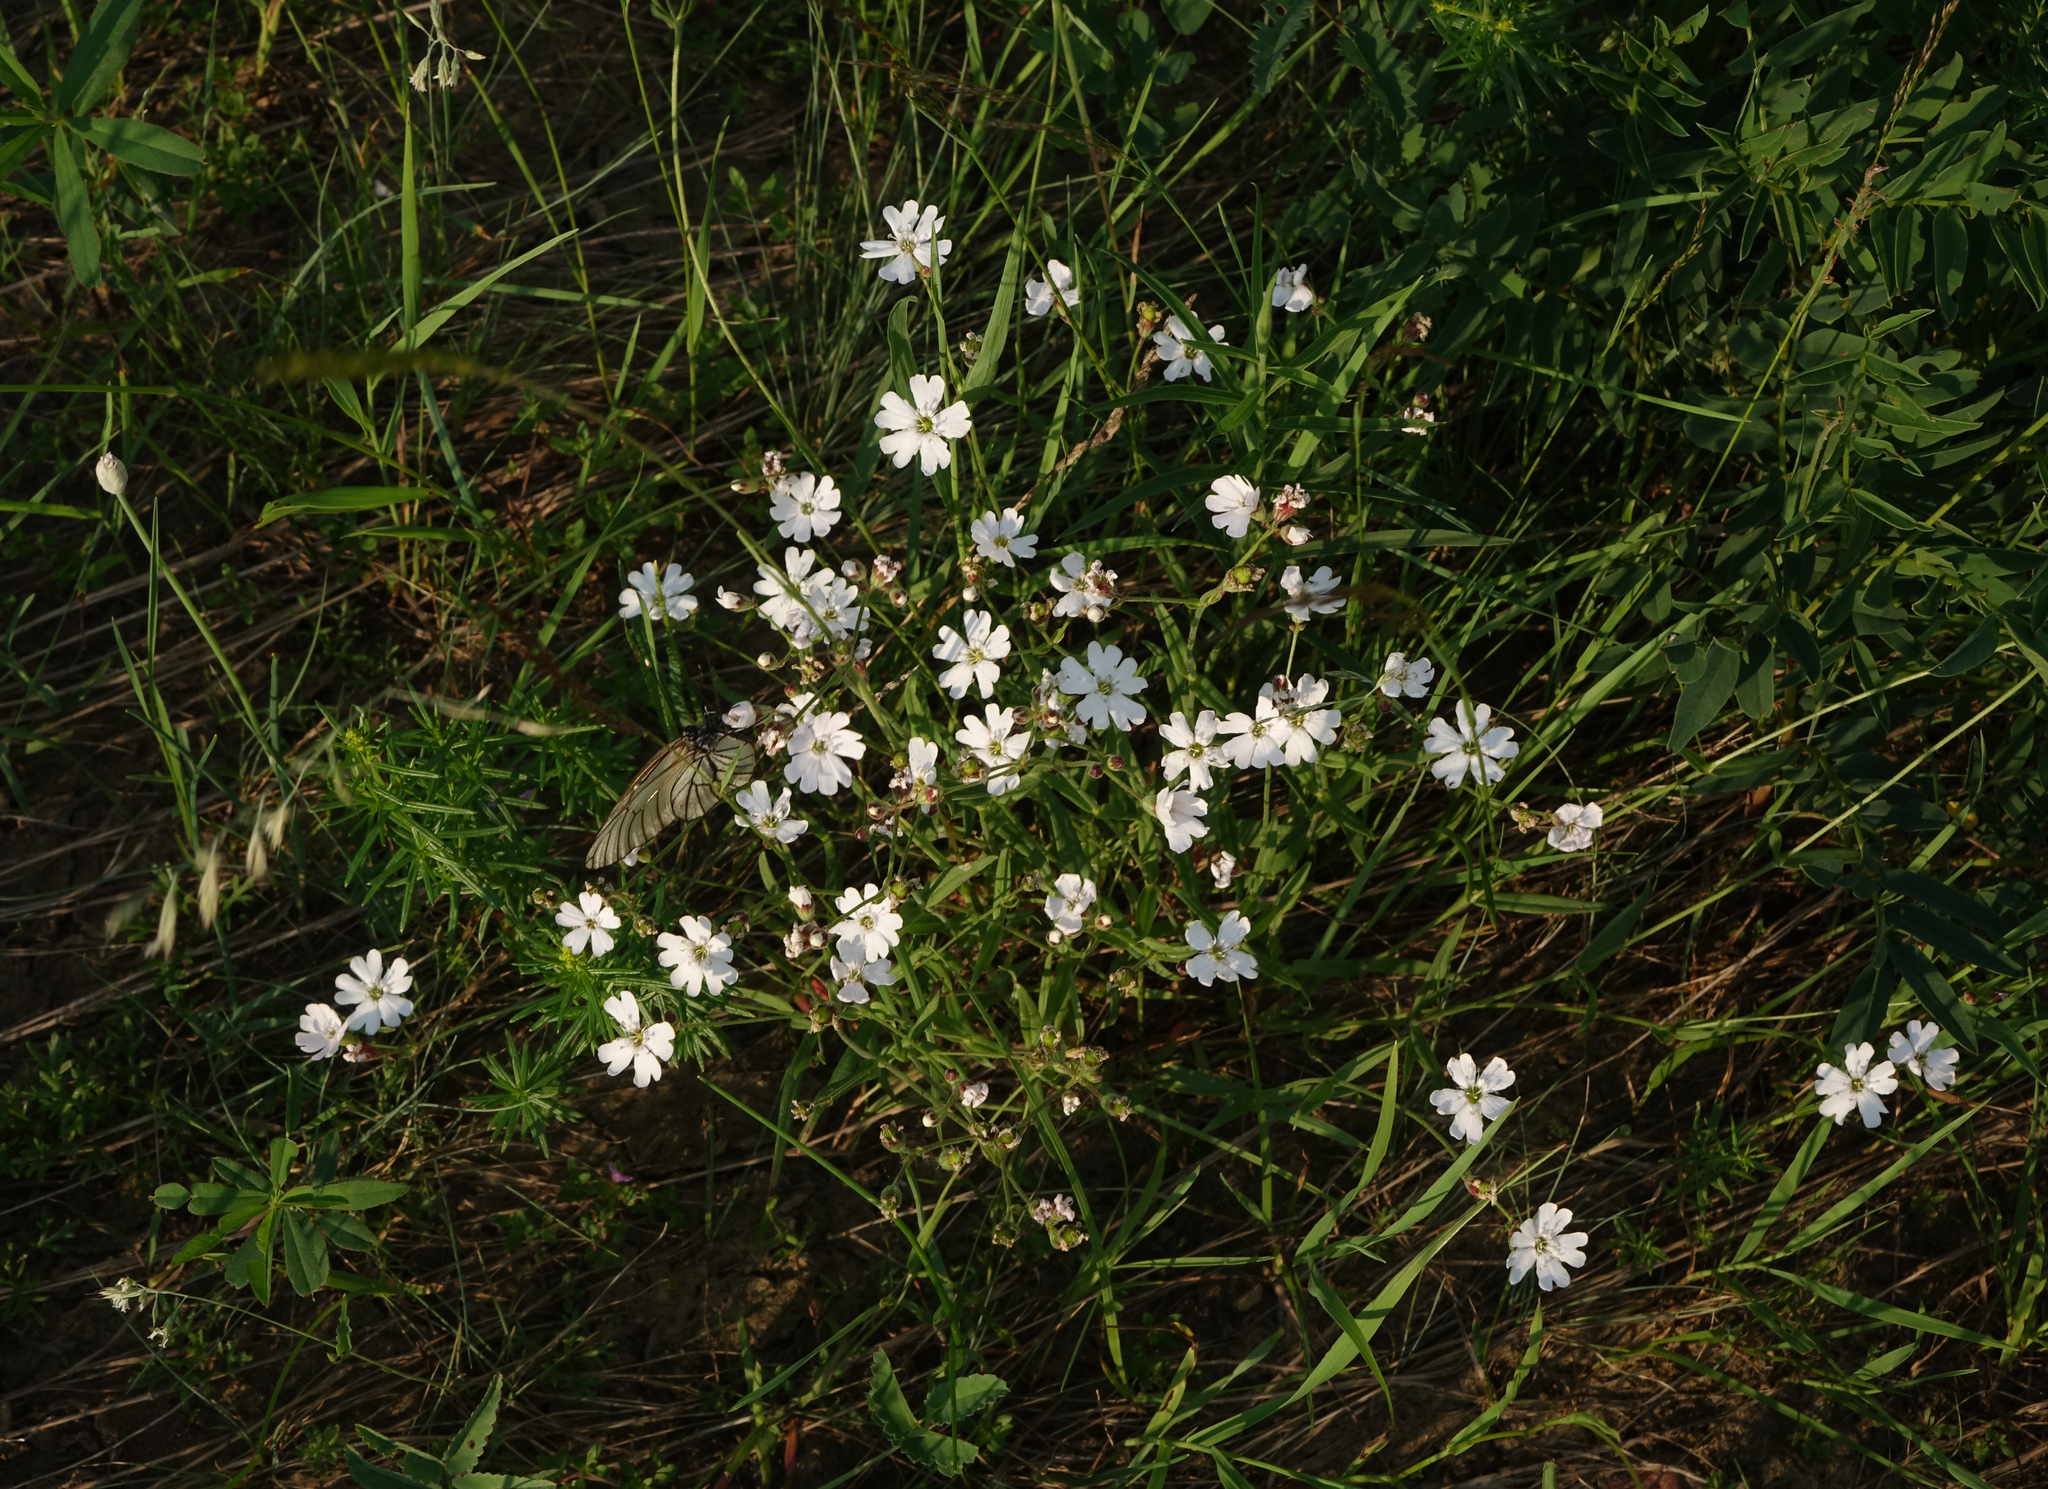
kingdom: Plantae
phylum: Tracheophyta
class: Magnoliopsida
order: Caryophyllales
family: Caryophyllaceae
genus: Silene
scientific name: Silene orientalimongolica
